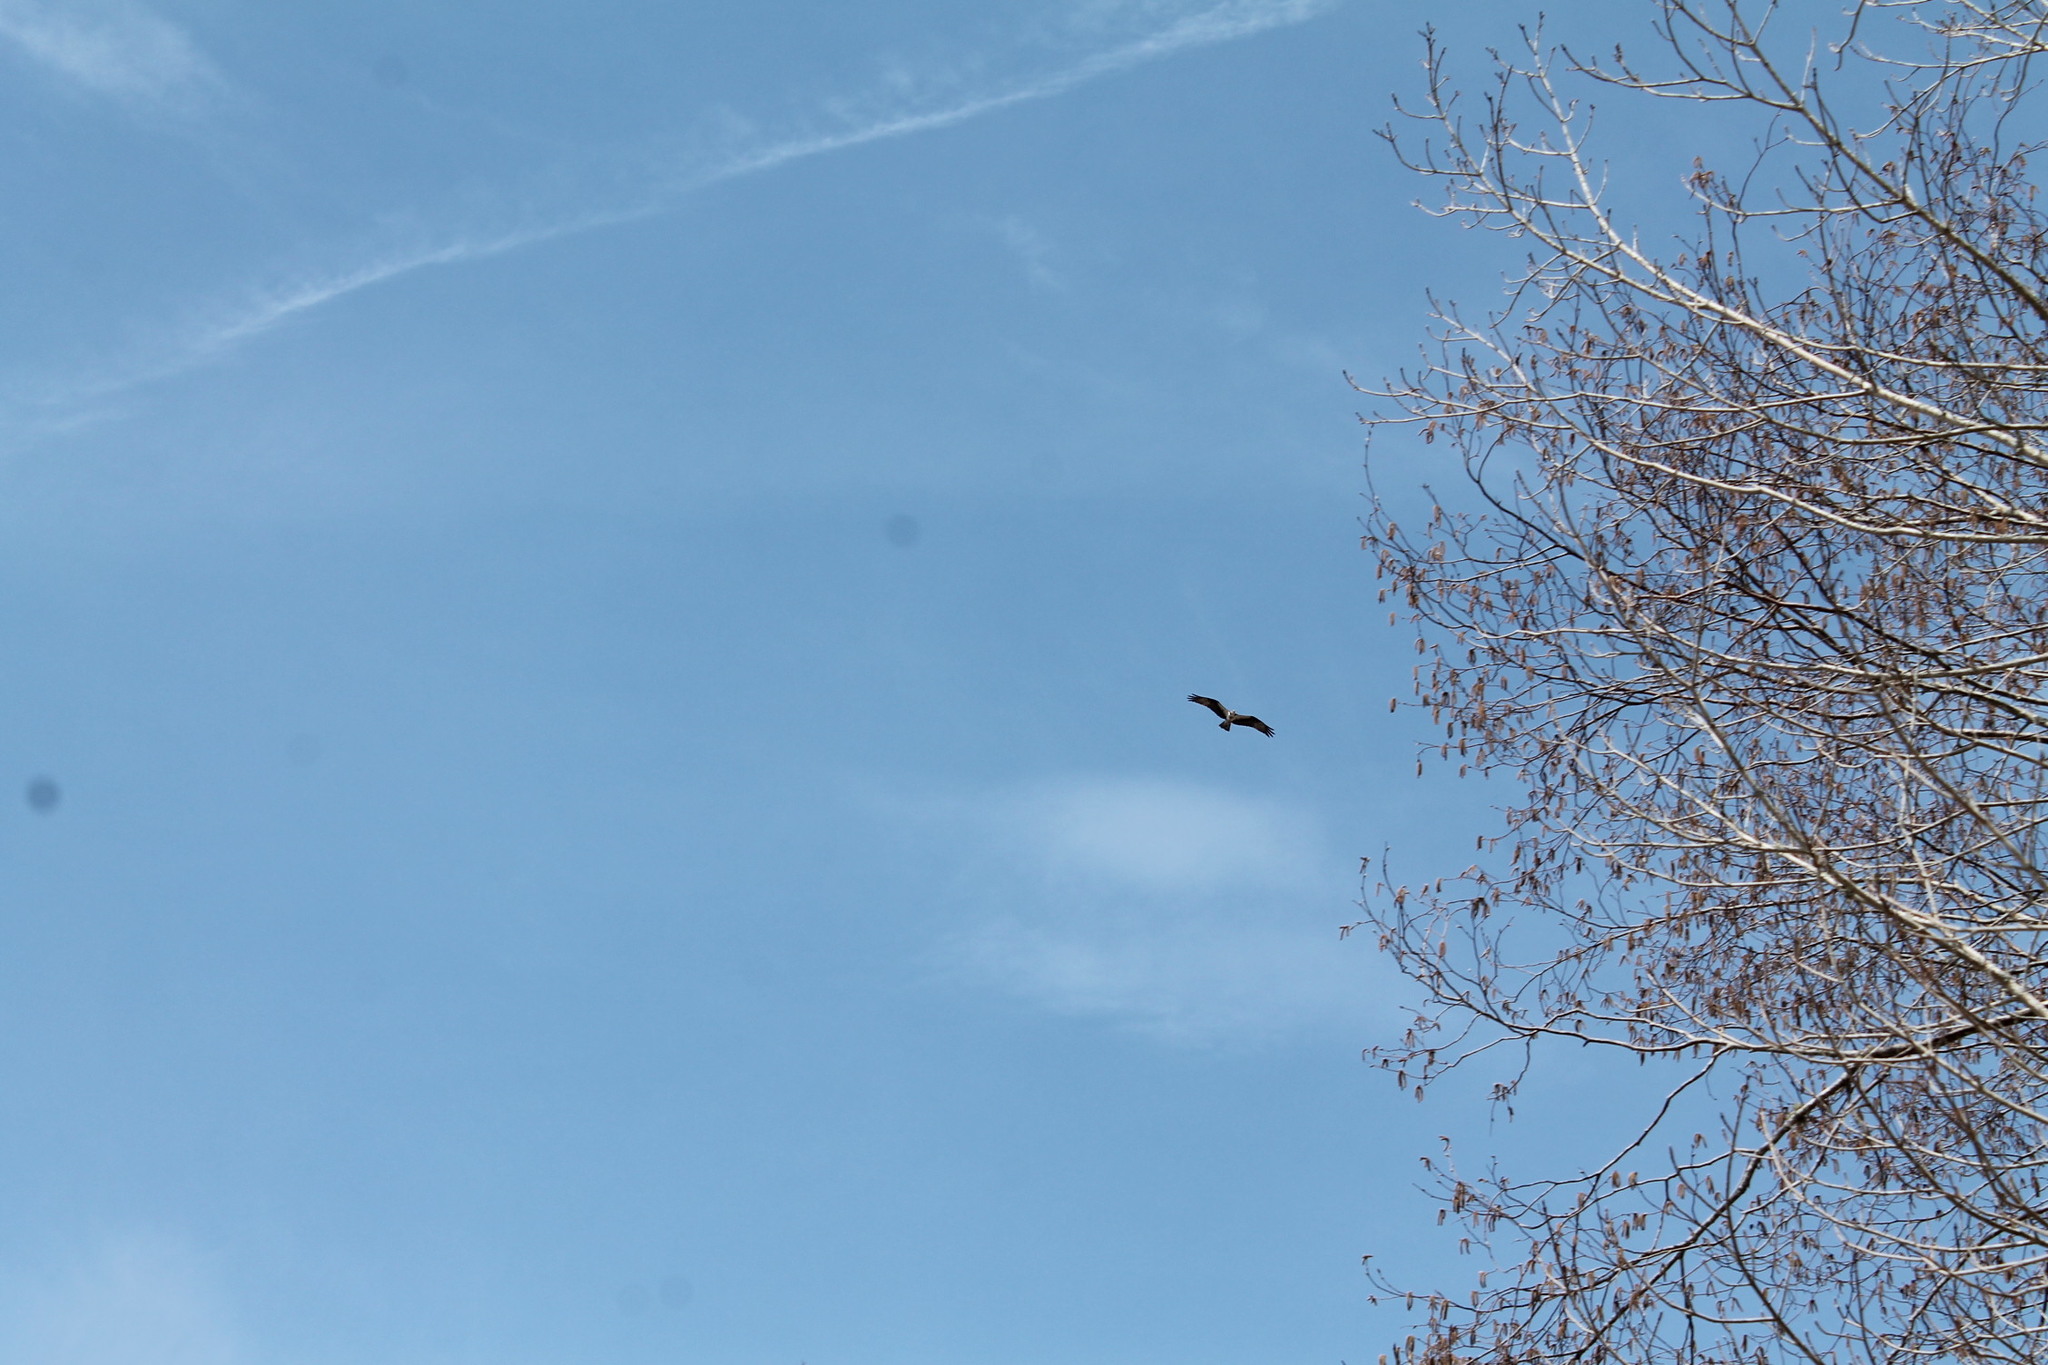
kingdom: Animalia
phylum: Chordata
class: Aves
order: Accipitriformes
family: Pandionidae
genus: Pandion
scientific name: Pandion haliaetus
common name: Osprey
